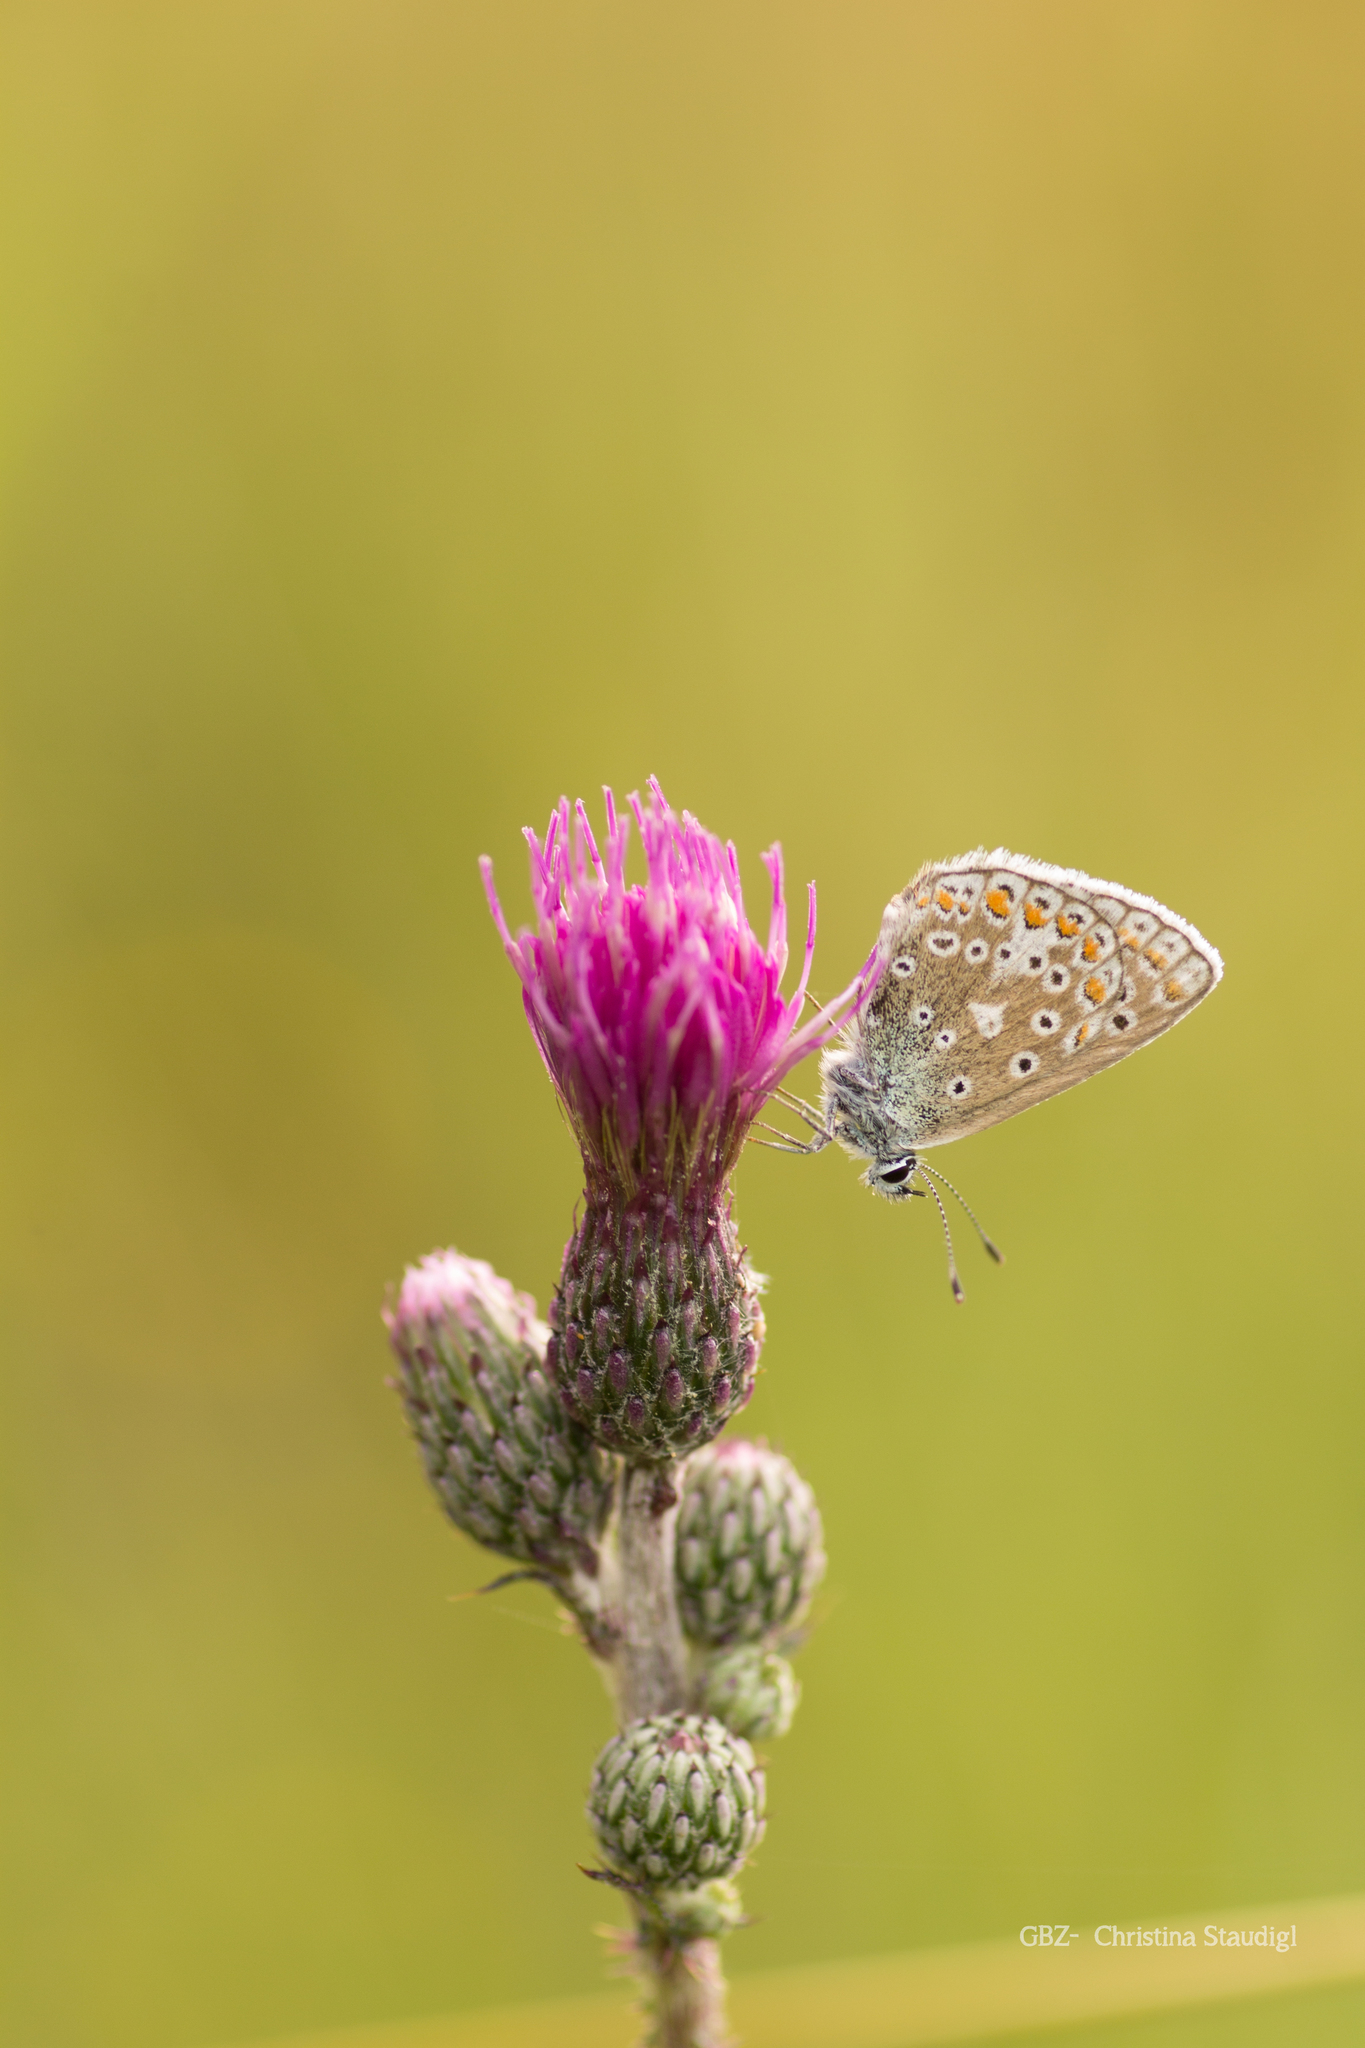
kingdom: Animalia
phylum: Arthropoda
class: Insecta
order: Lepidoptera
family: Lycaenidae
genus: Polyommatus
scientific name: Polyommatus icarus
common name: Common blue
